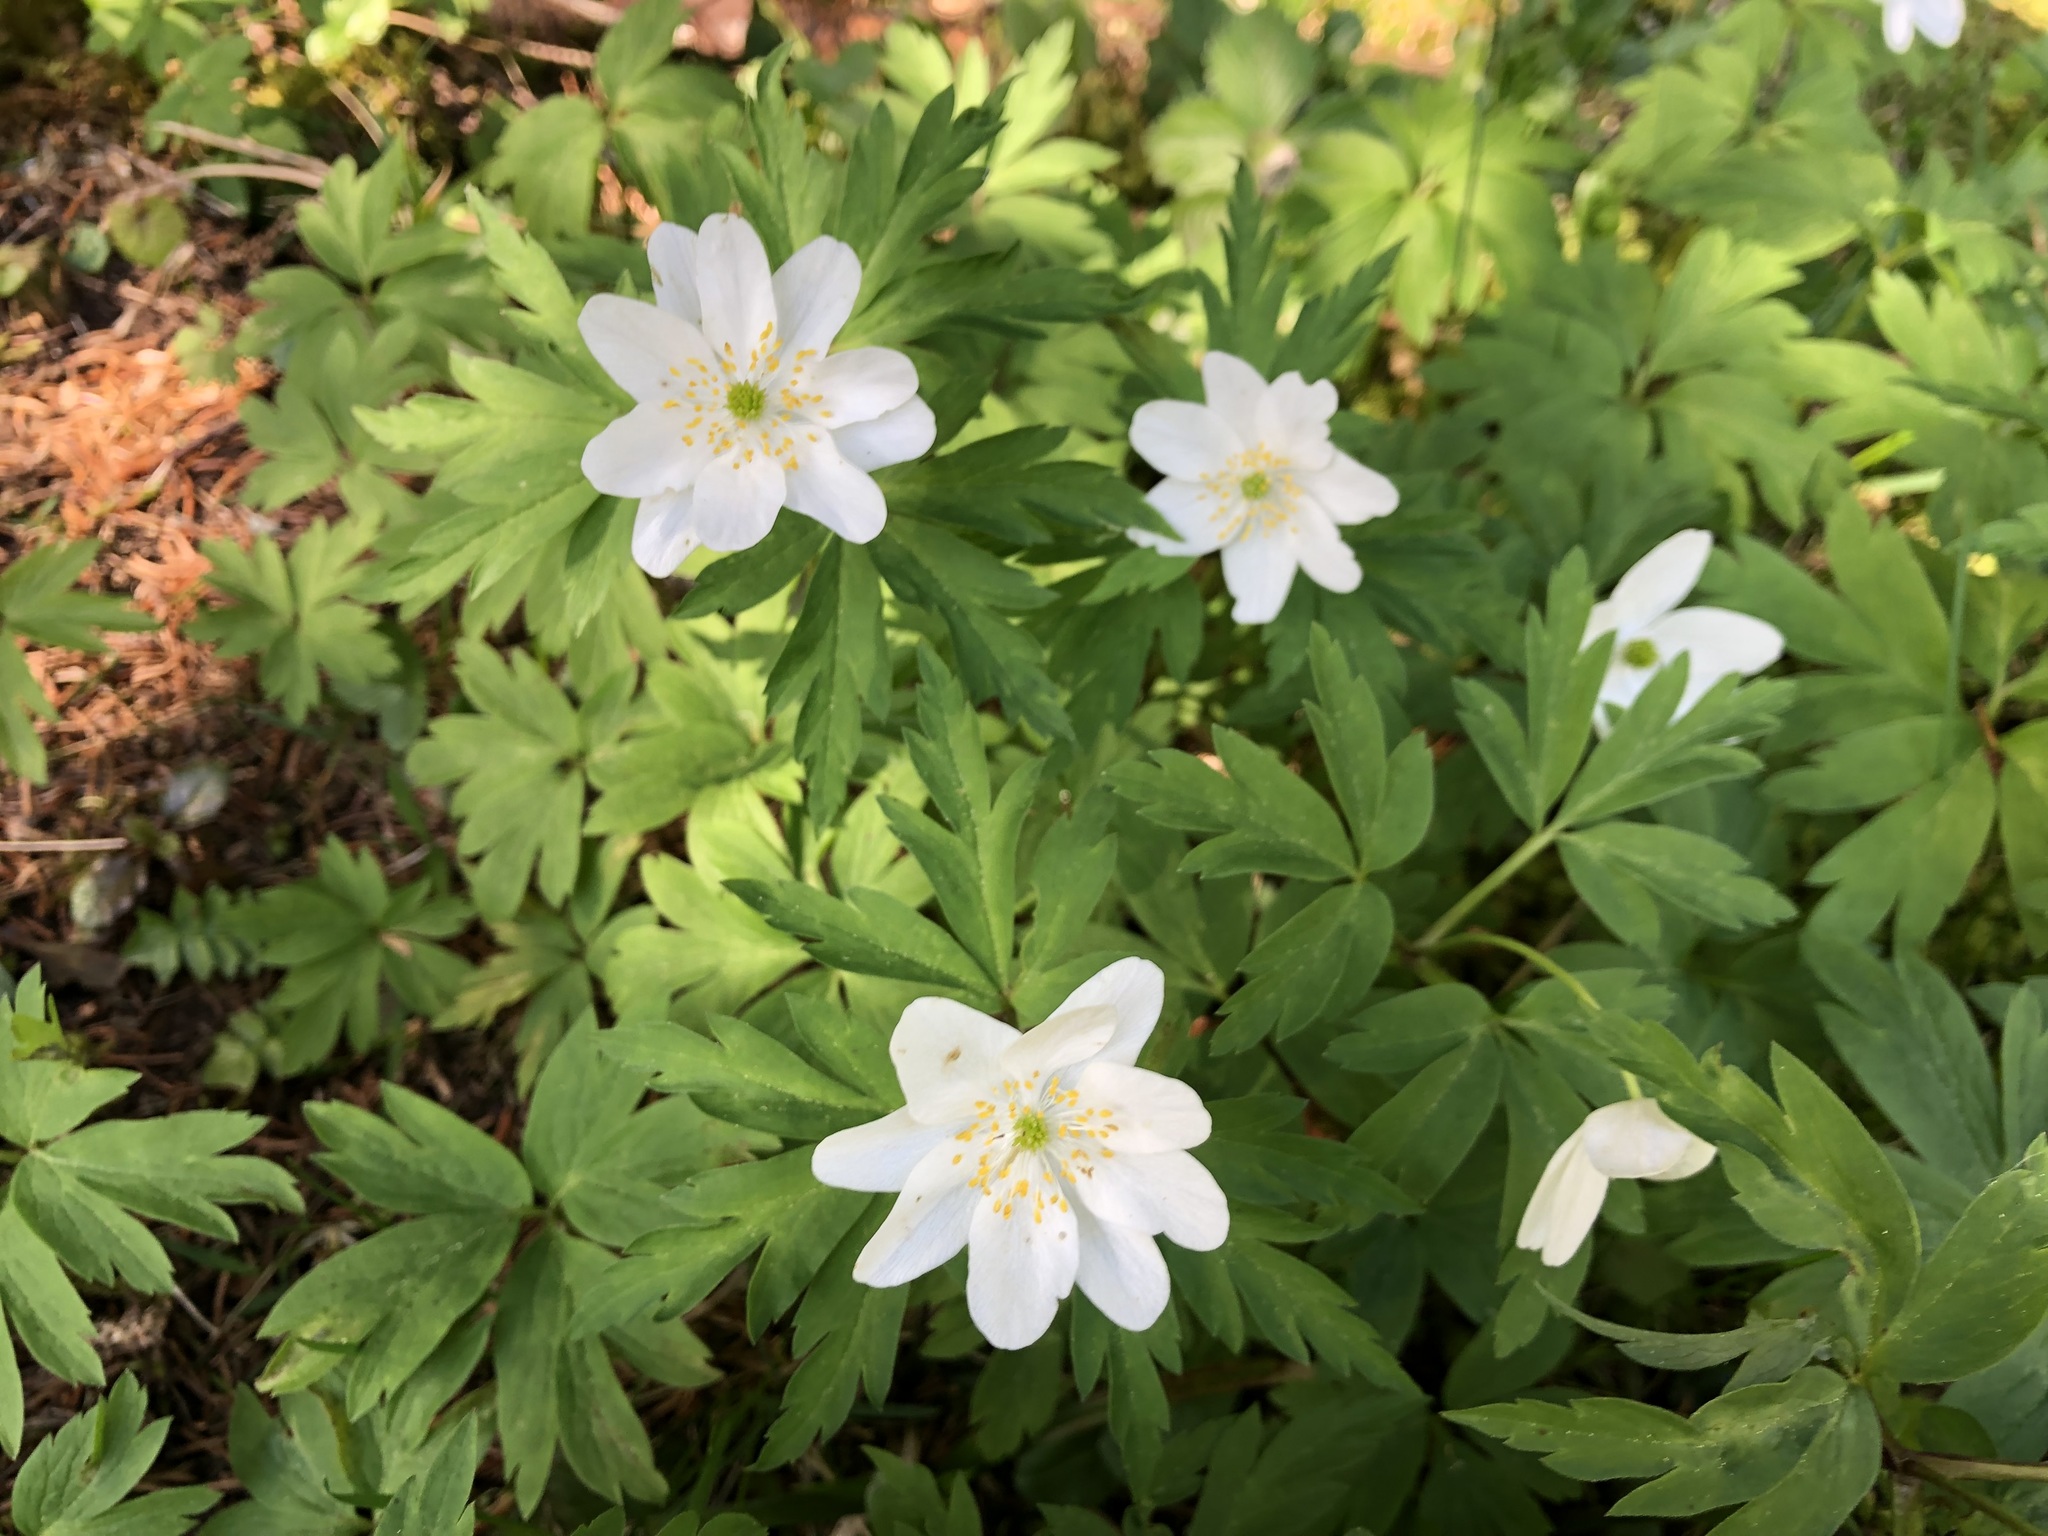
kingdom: Plantae
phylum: Tracheophyta
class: Magnoliopsida
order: Ranunculales
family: Ranunculaceae
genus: Anemone
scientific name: Anemone nemorosa
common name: Wood anemone
